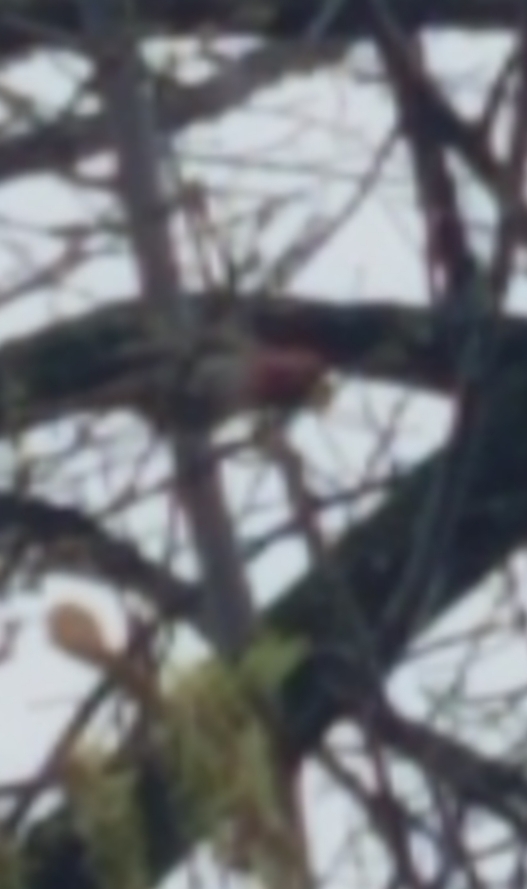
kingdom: Animalia
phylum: Chordata
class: Aves
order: Passeriformes
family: Fringillidae
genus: Haemorhous
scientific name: Haemorhous mexicanus
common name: House finch
